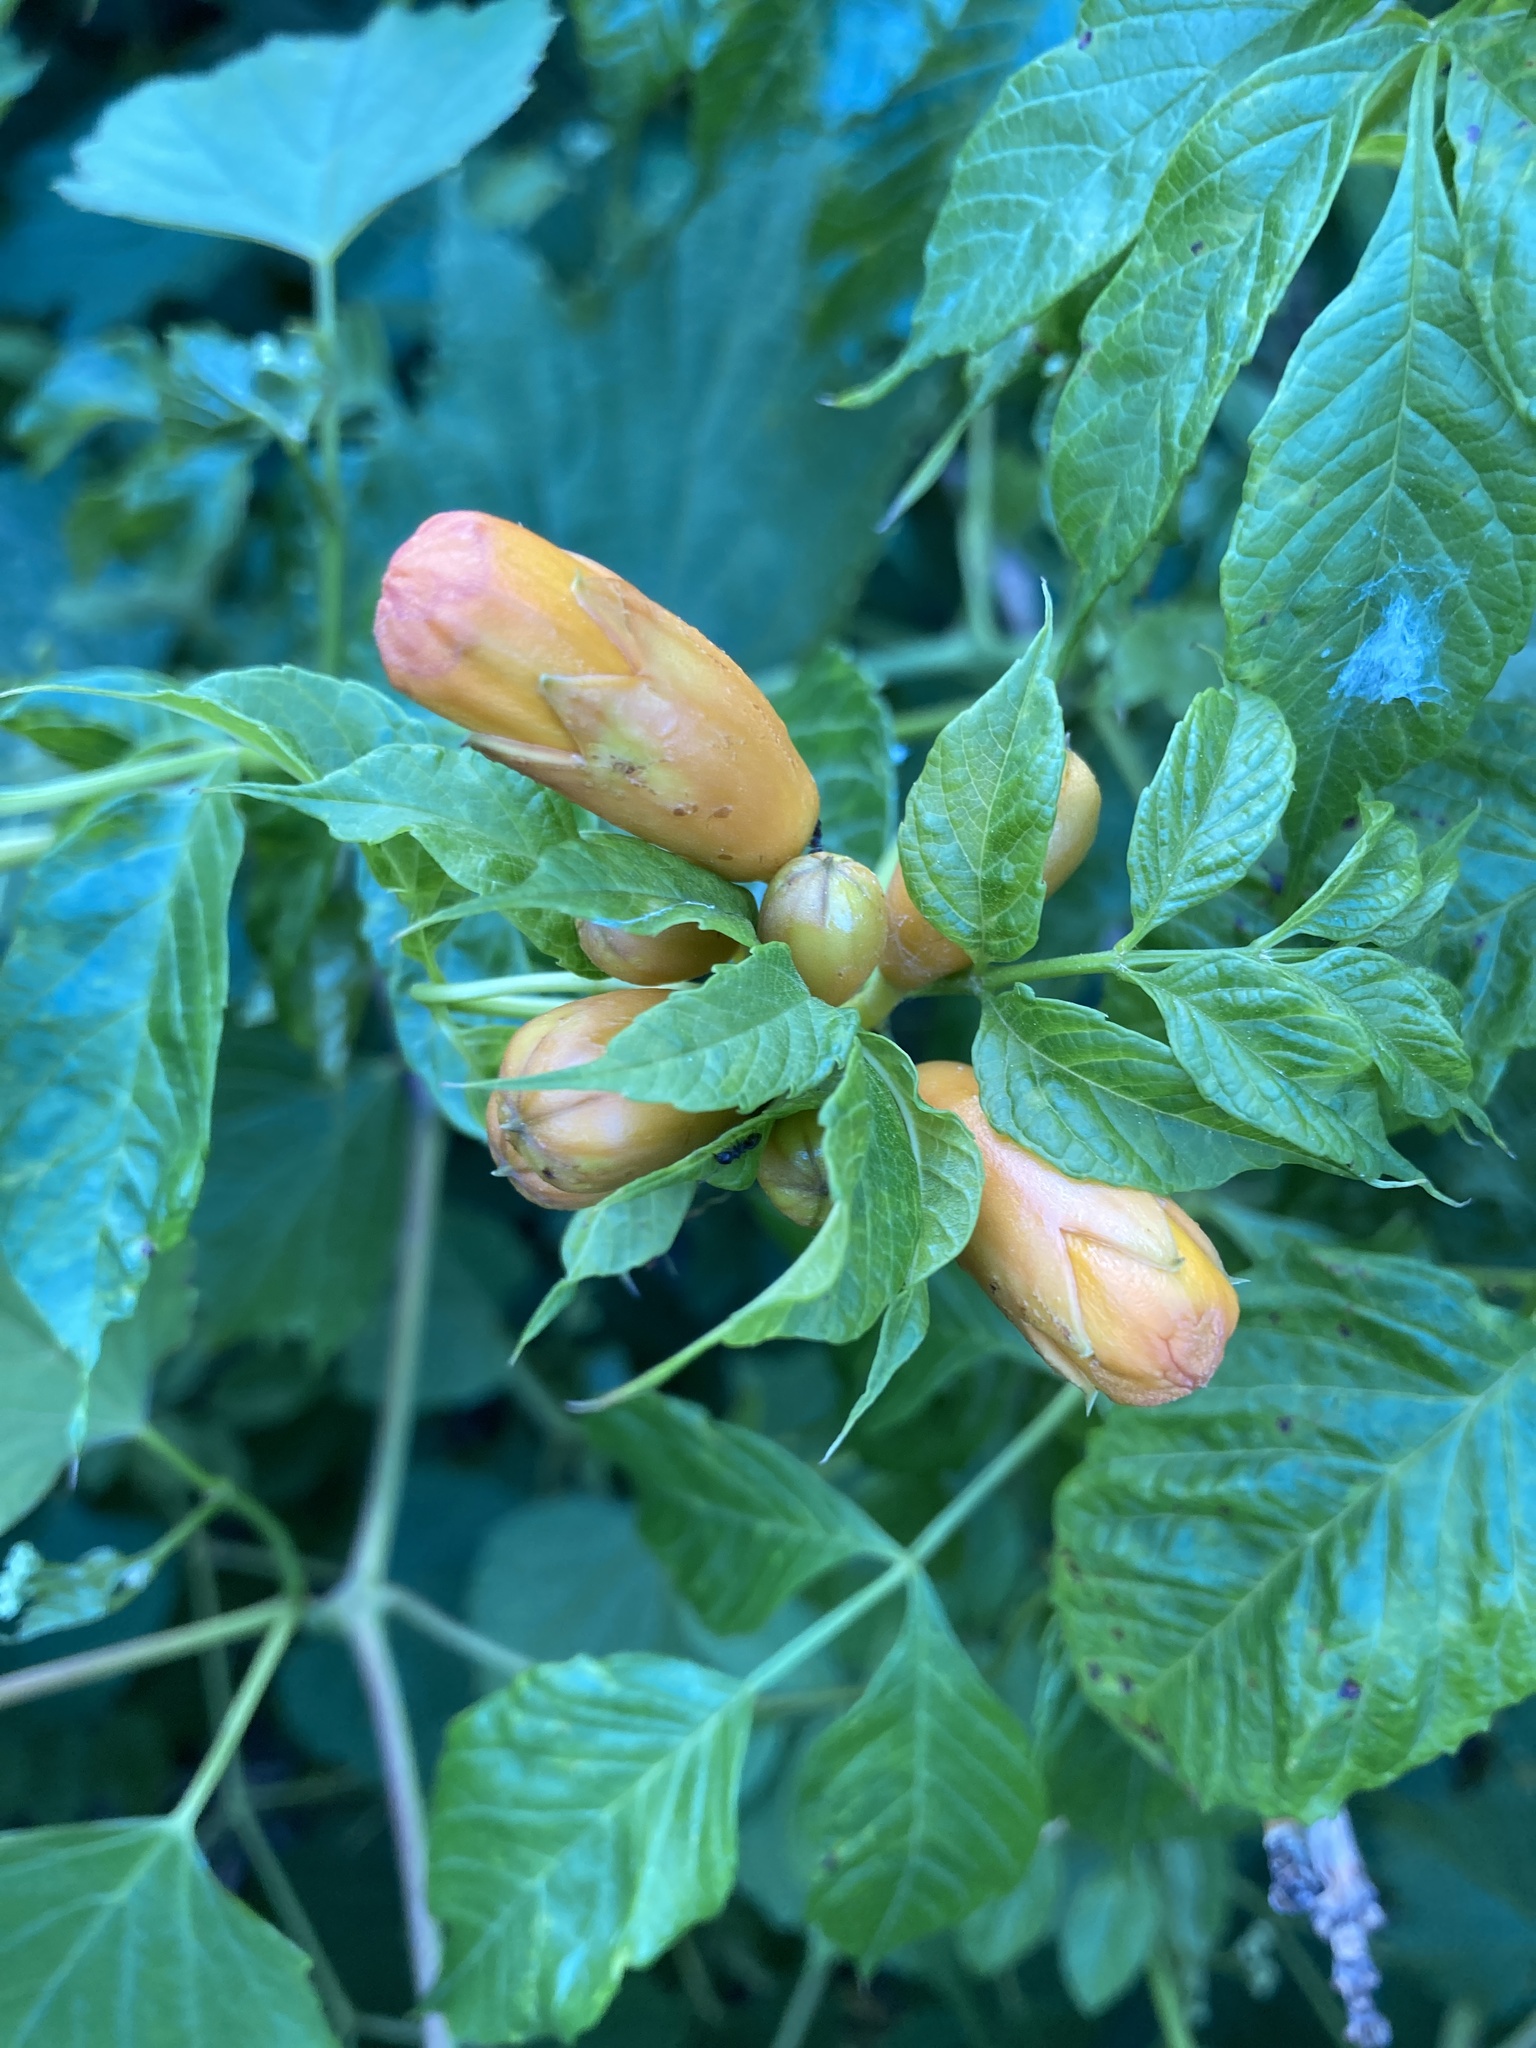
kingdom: Plantae
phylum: Tracheophyta
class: Magnoliopsida
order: Lamiales
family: Bignoniaceae
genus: Campsis
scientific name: Campsis radicans
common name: Trumpet-creeper
